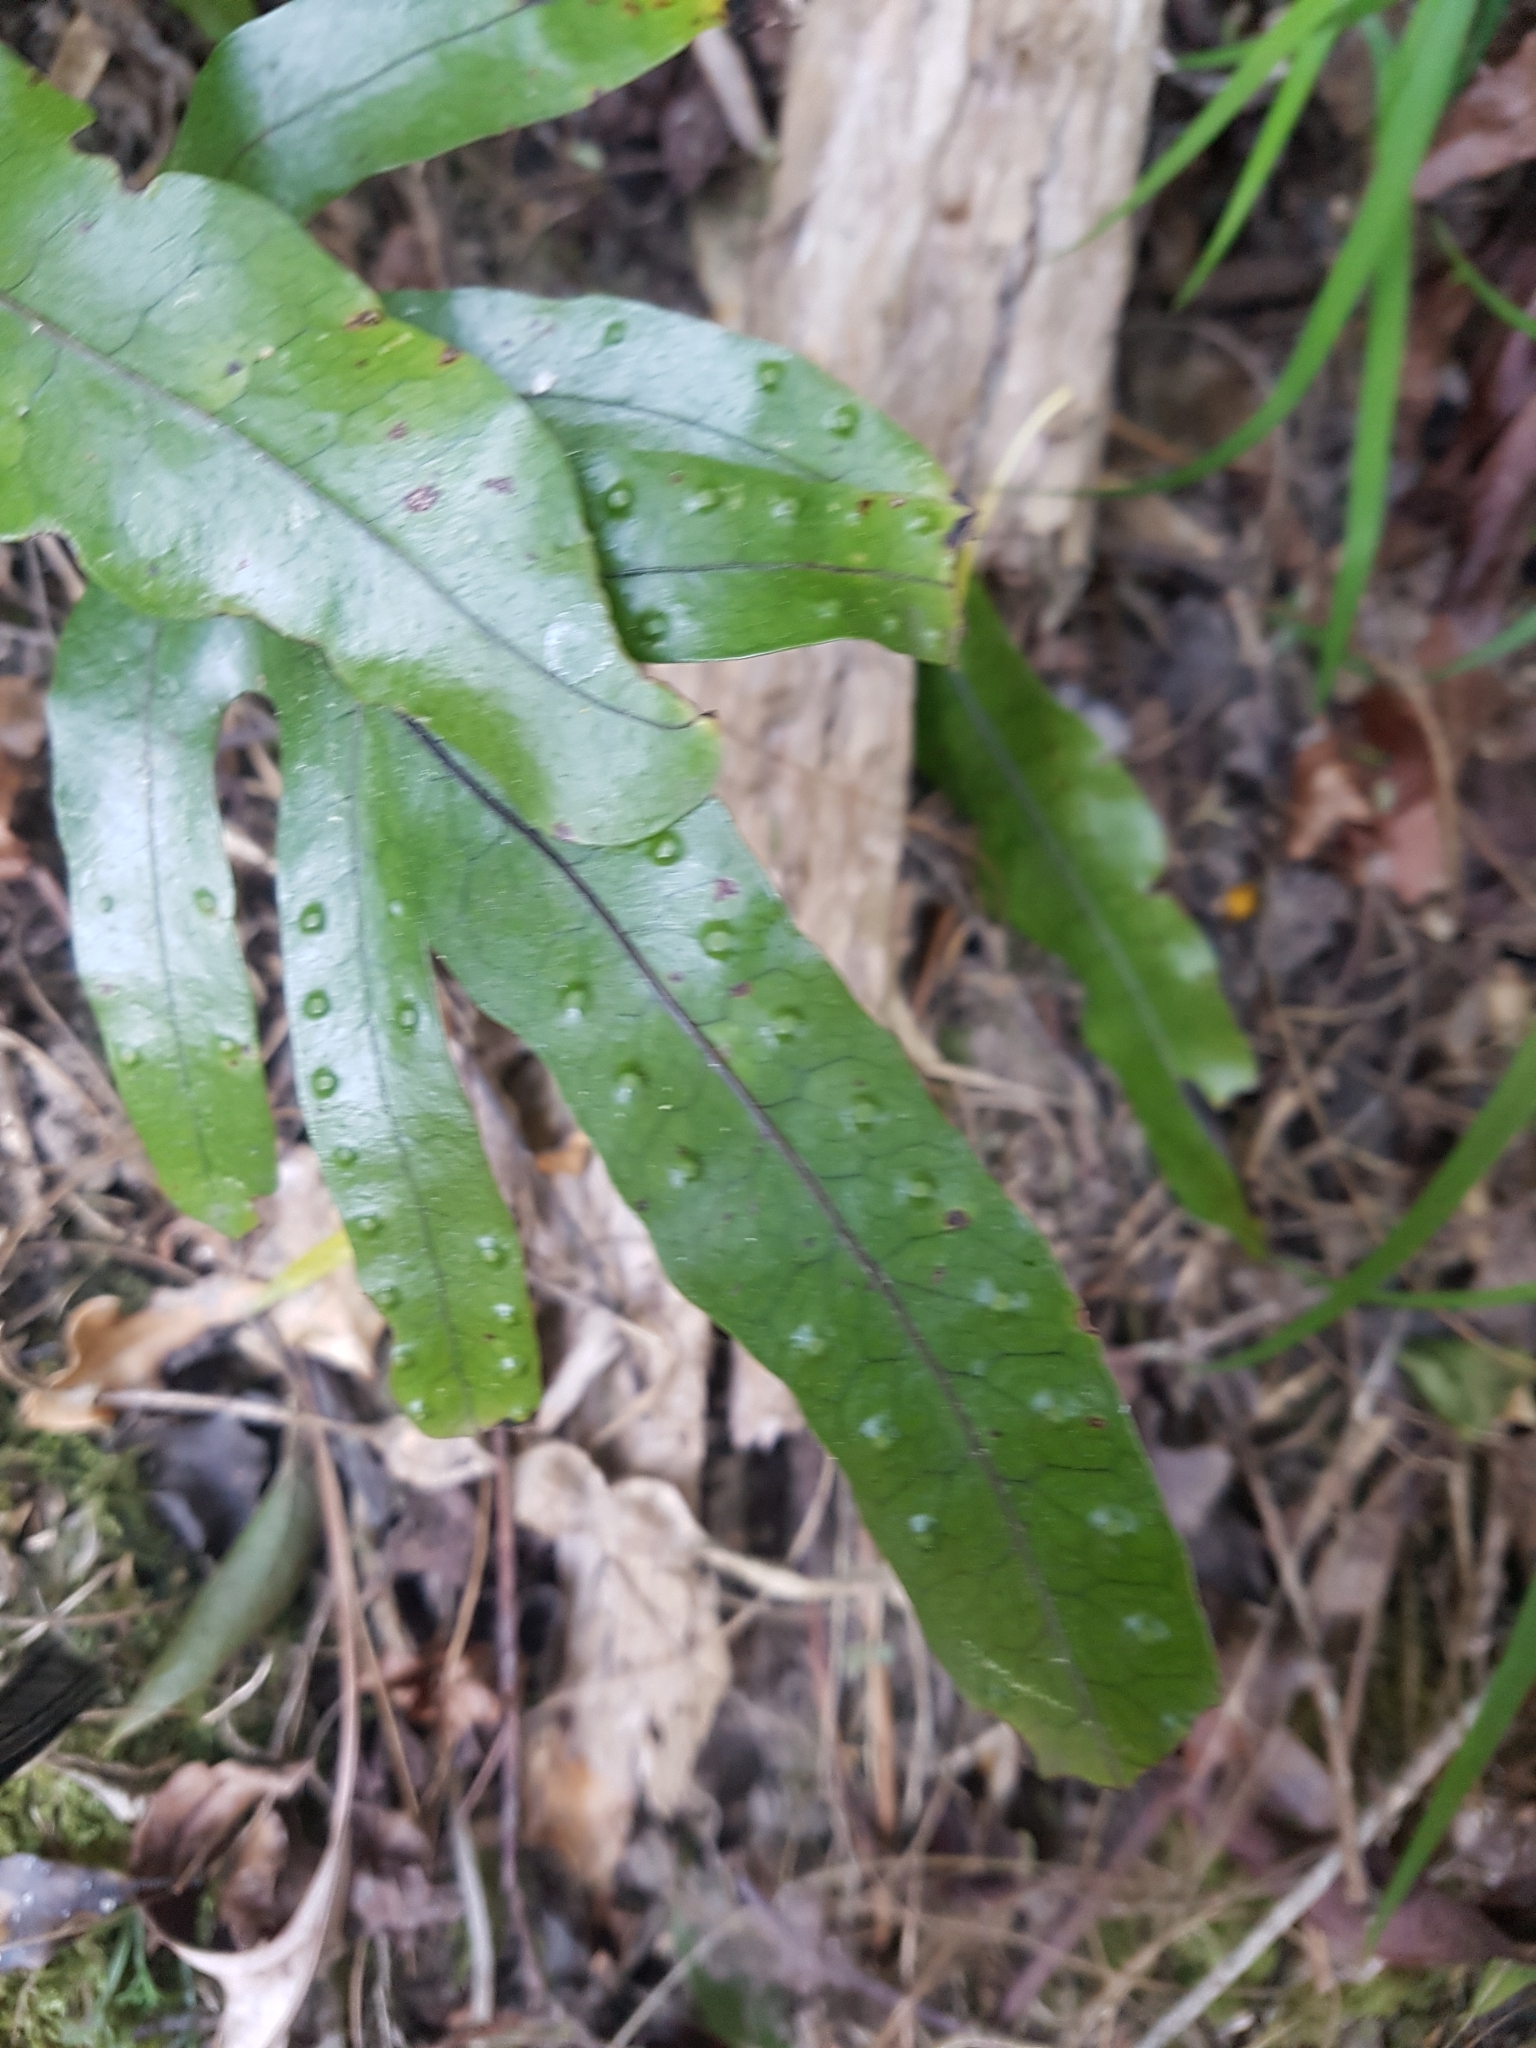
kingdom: Plantae
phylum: Tracheophyta
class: Polypodiopsida
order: Polypodiales
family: Polypodiaceae
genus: Lecanopteris
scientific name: Lecanopteris pustulata
